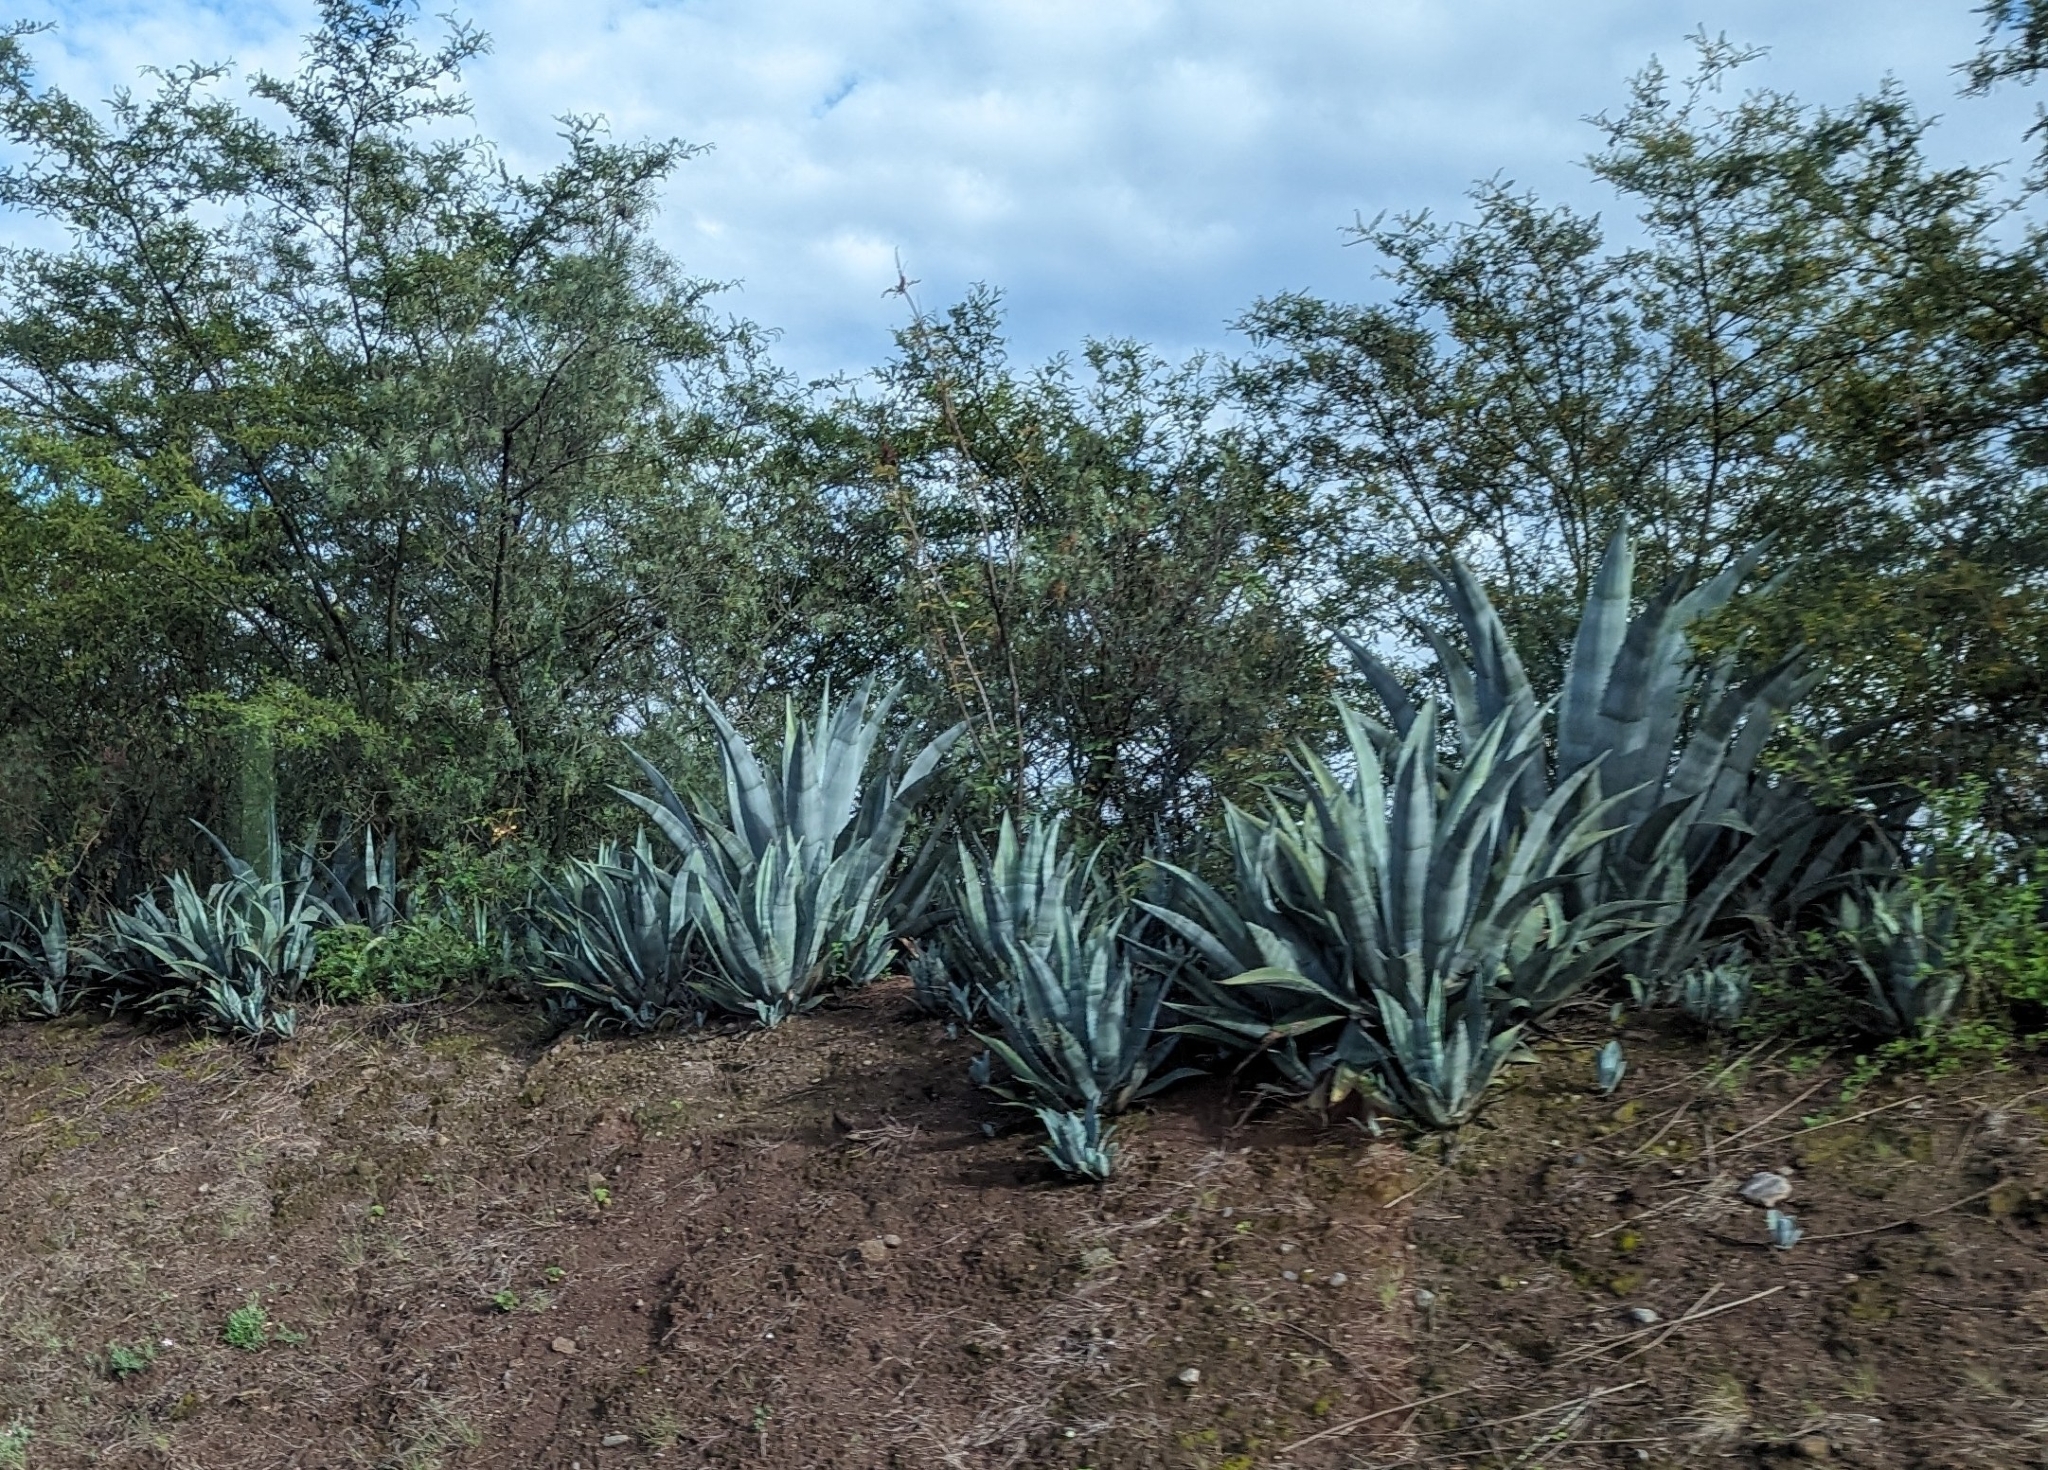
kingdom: Plantae
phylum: Tracheophyta
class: Liliopsida
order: Asparagales
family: Asparagaceae
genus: Agave
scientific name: Agave americana
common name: Centuryplant
